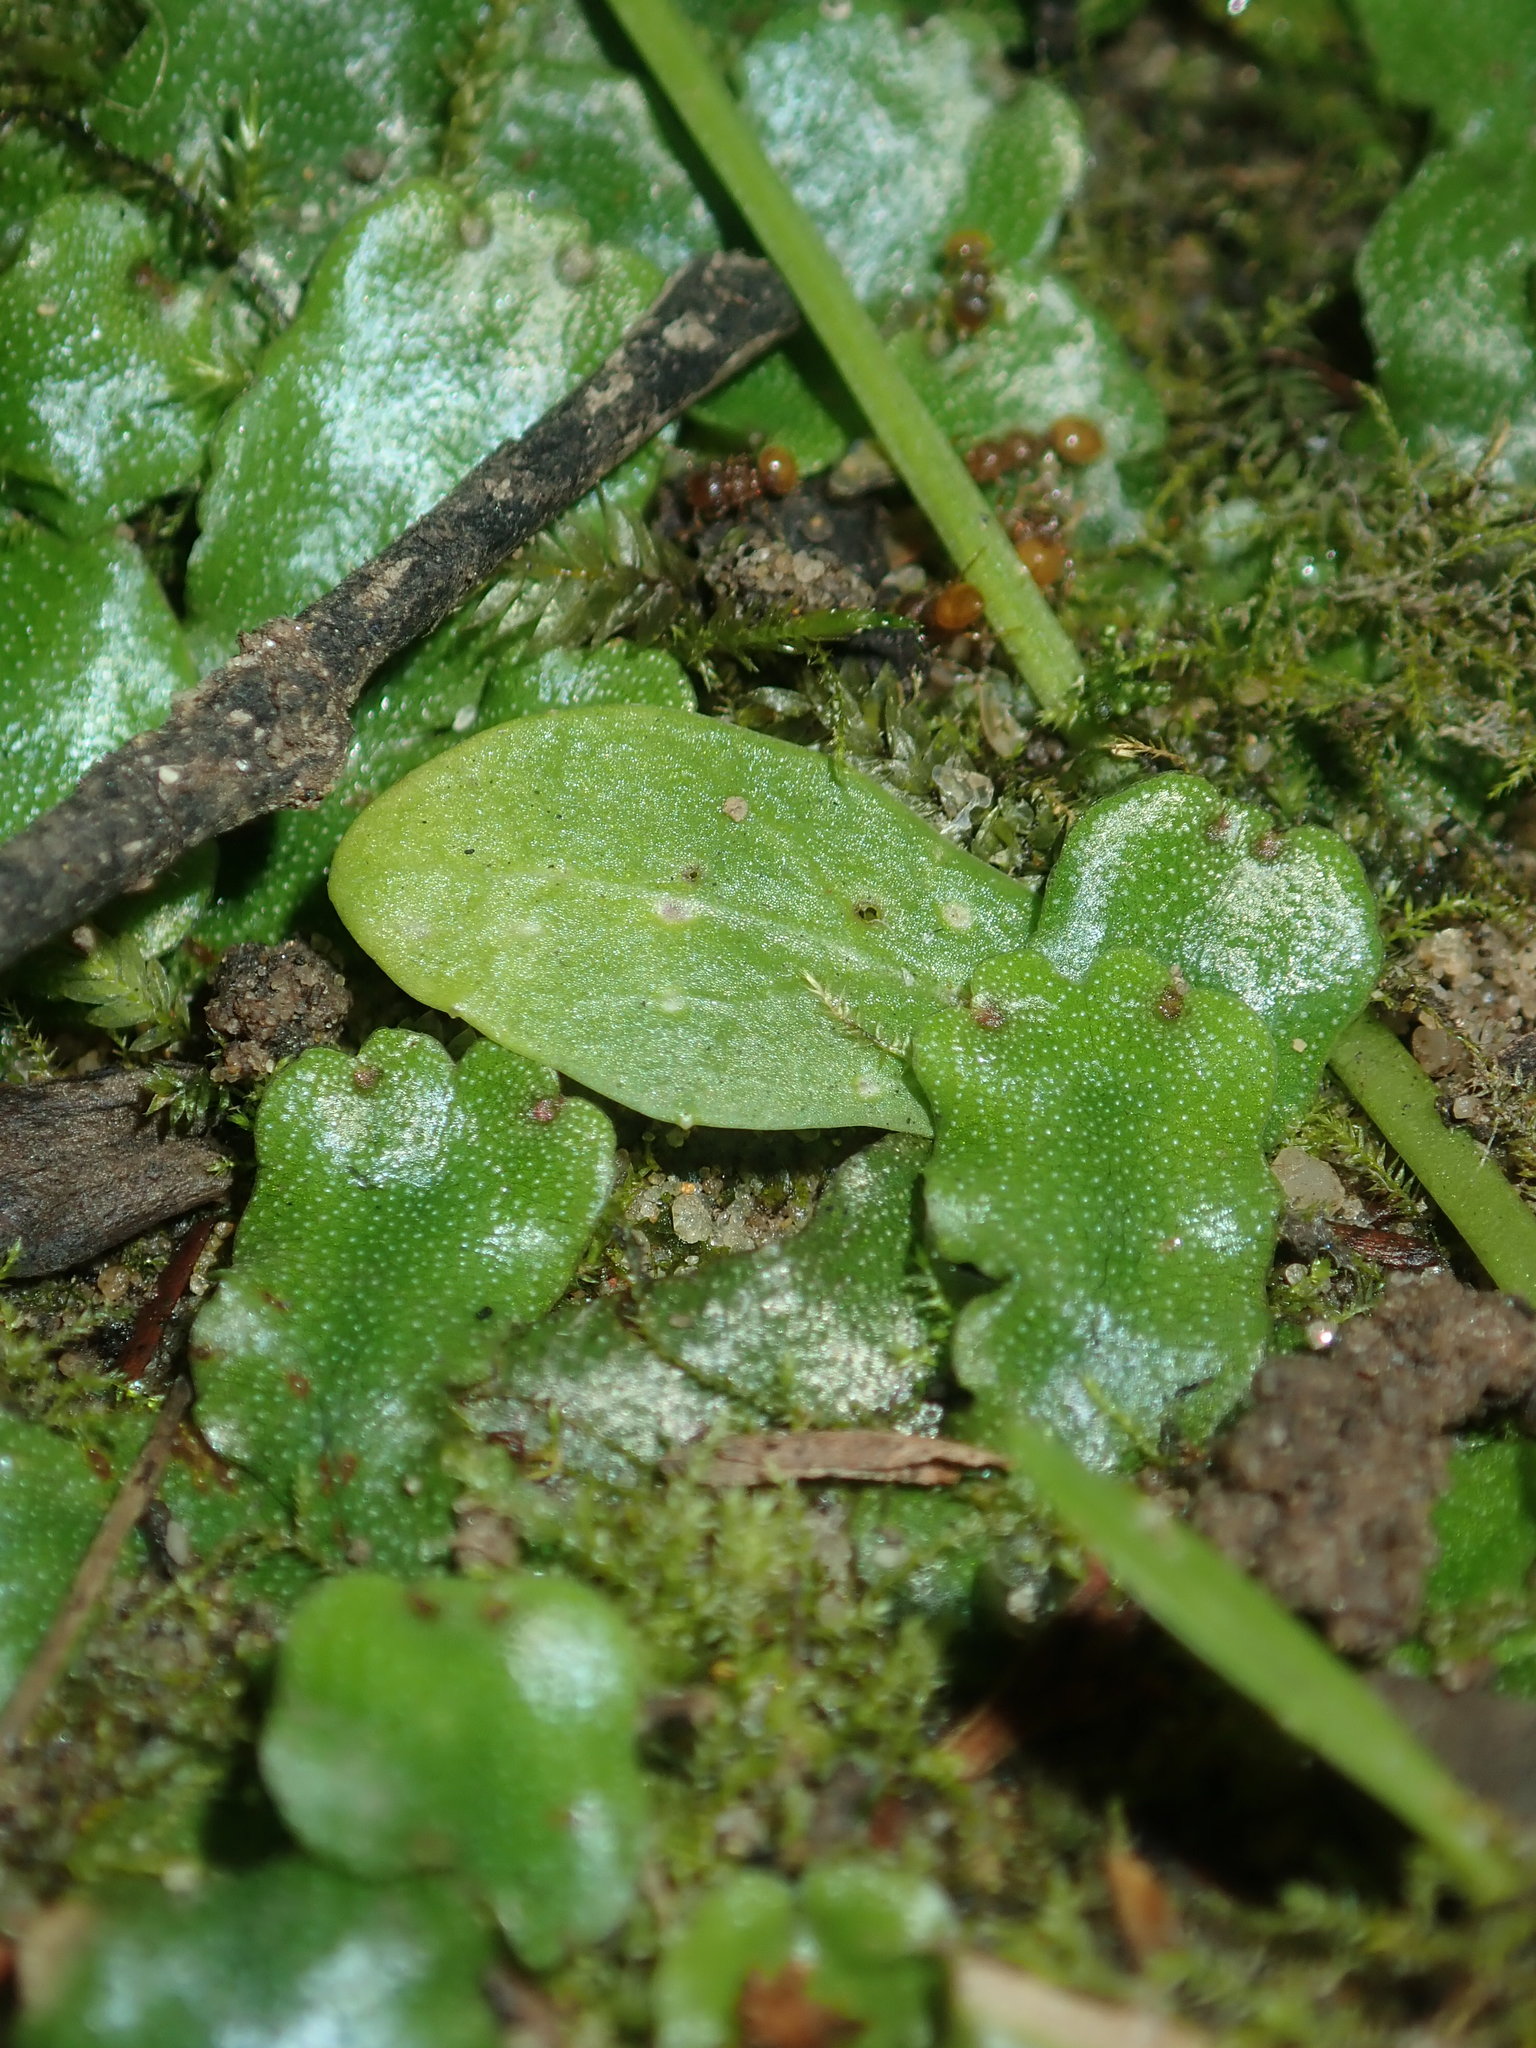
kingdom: Plantae
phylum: Marchantiophyta
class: Marchantiopsida
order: Marchantiales
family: Marchantiaceae
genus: Marchantia
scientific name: Marchantia berteroana
